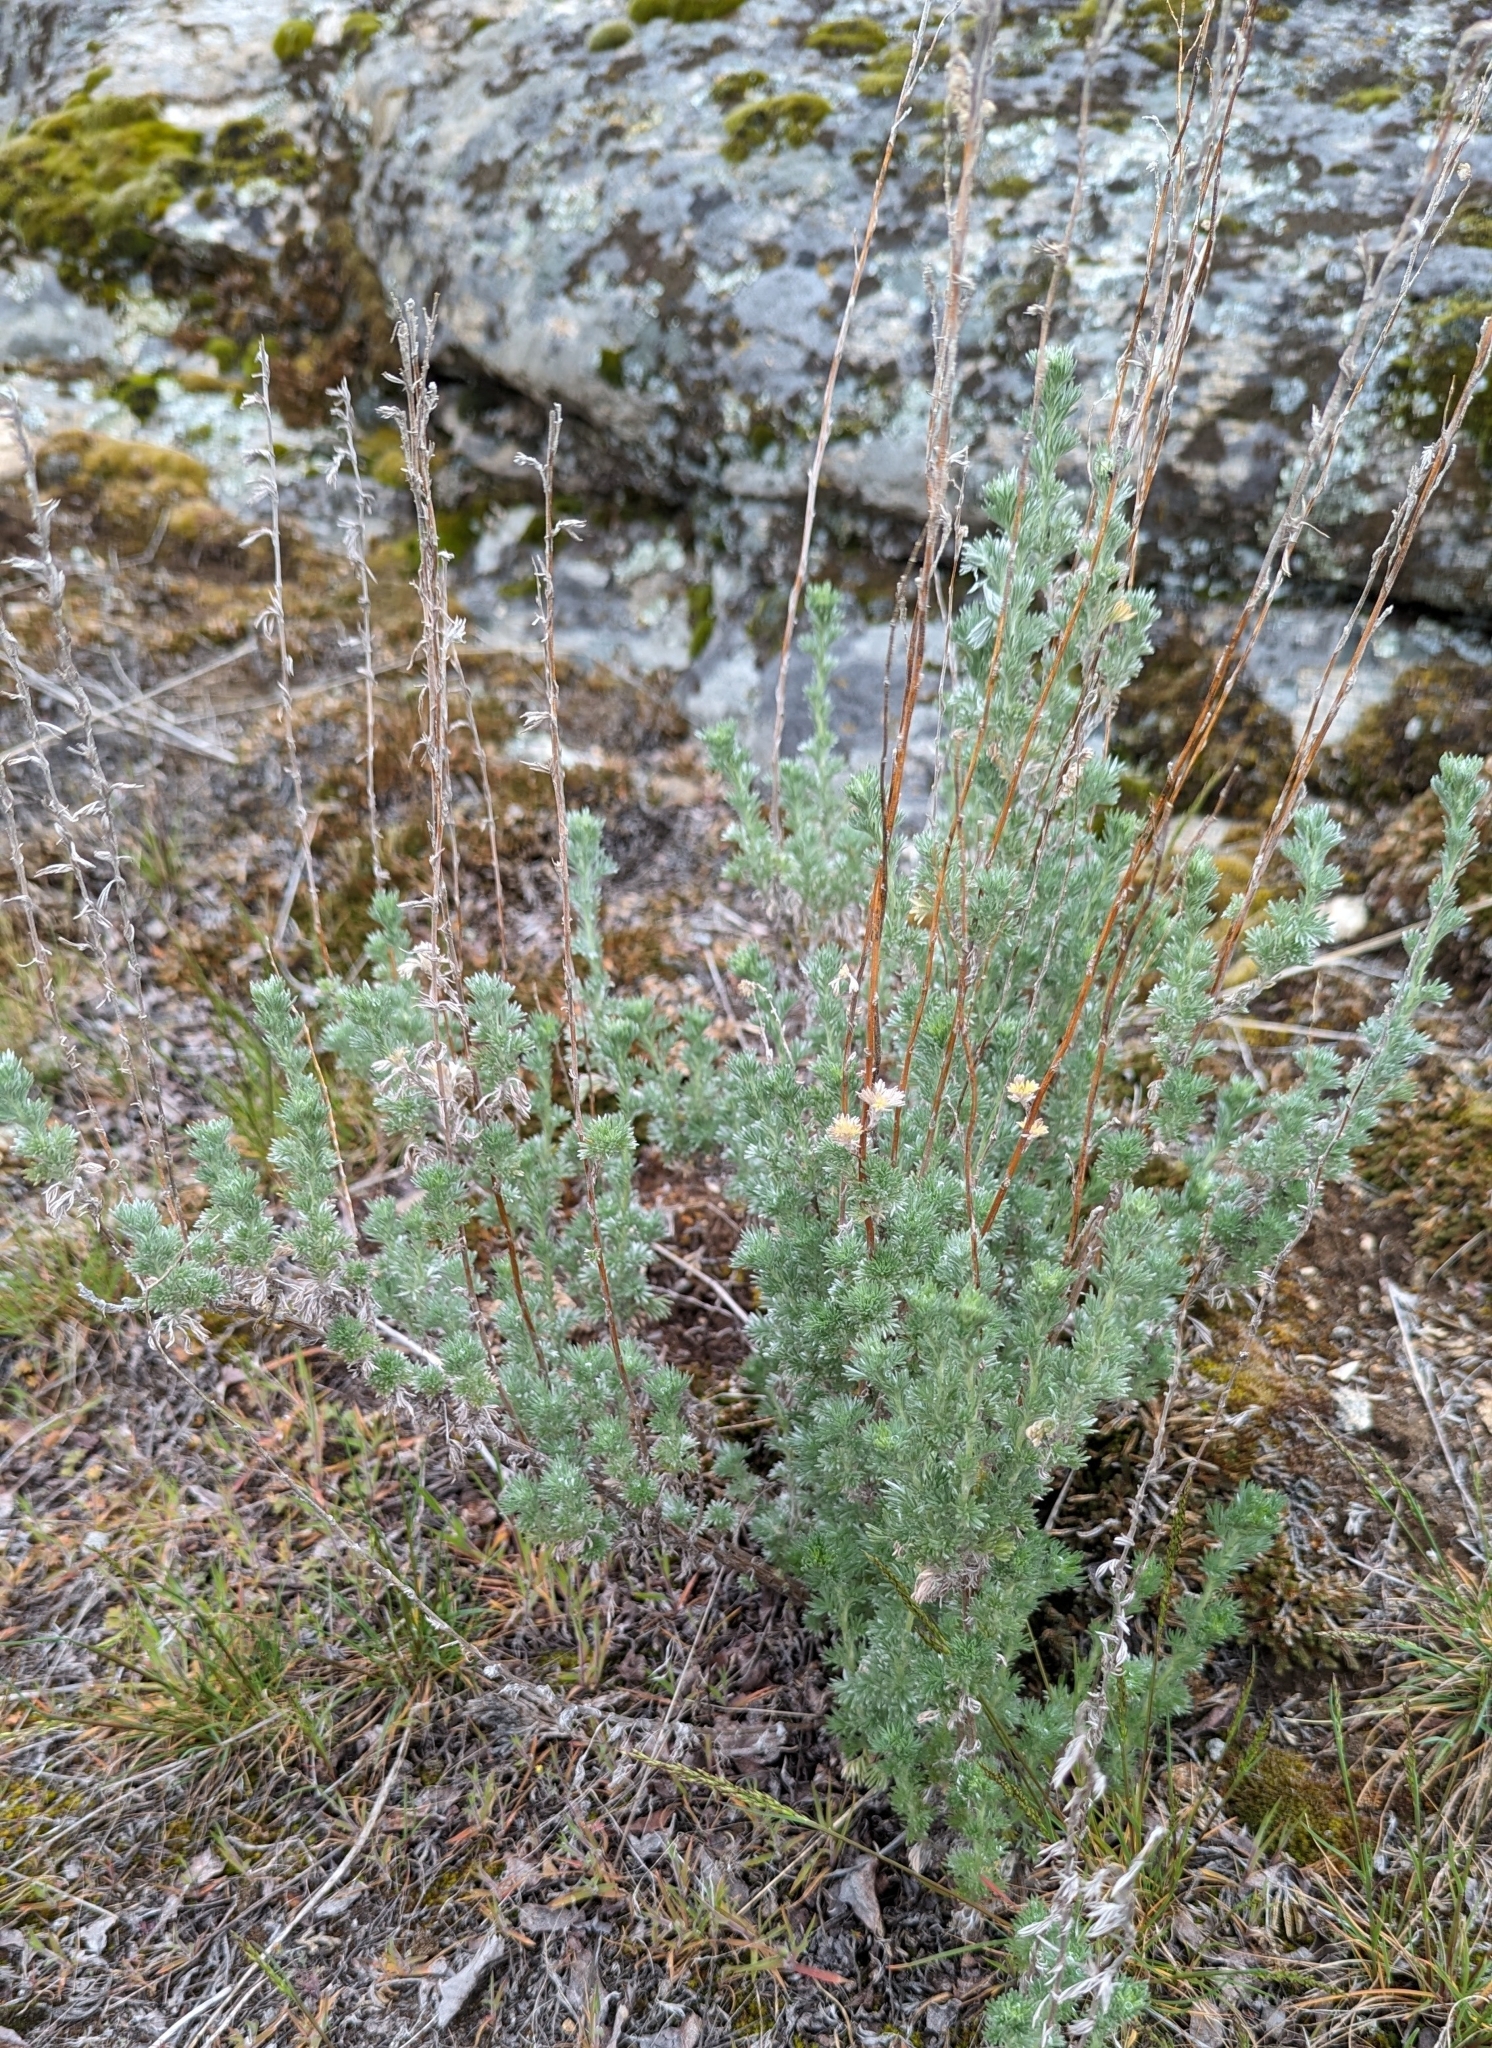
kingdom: Plantae
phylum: Tracheophyta
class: Magnoliopsida
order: Asterales
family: Asteraceae
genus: Artemisia
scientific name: Artemisia frigida
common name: Prairie sagewort
